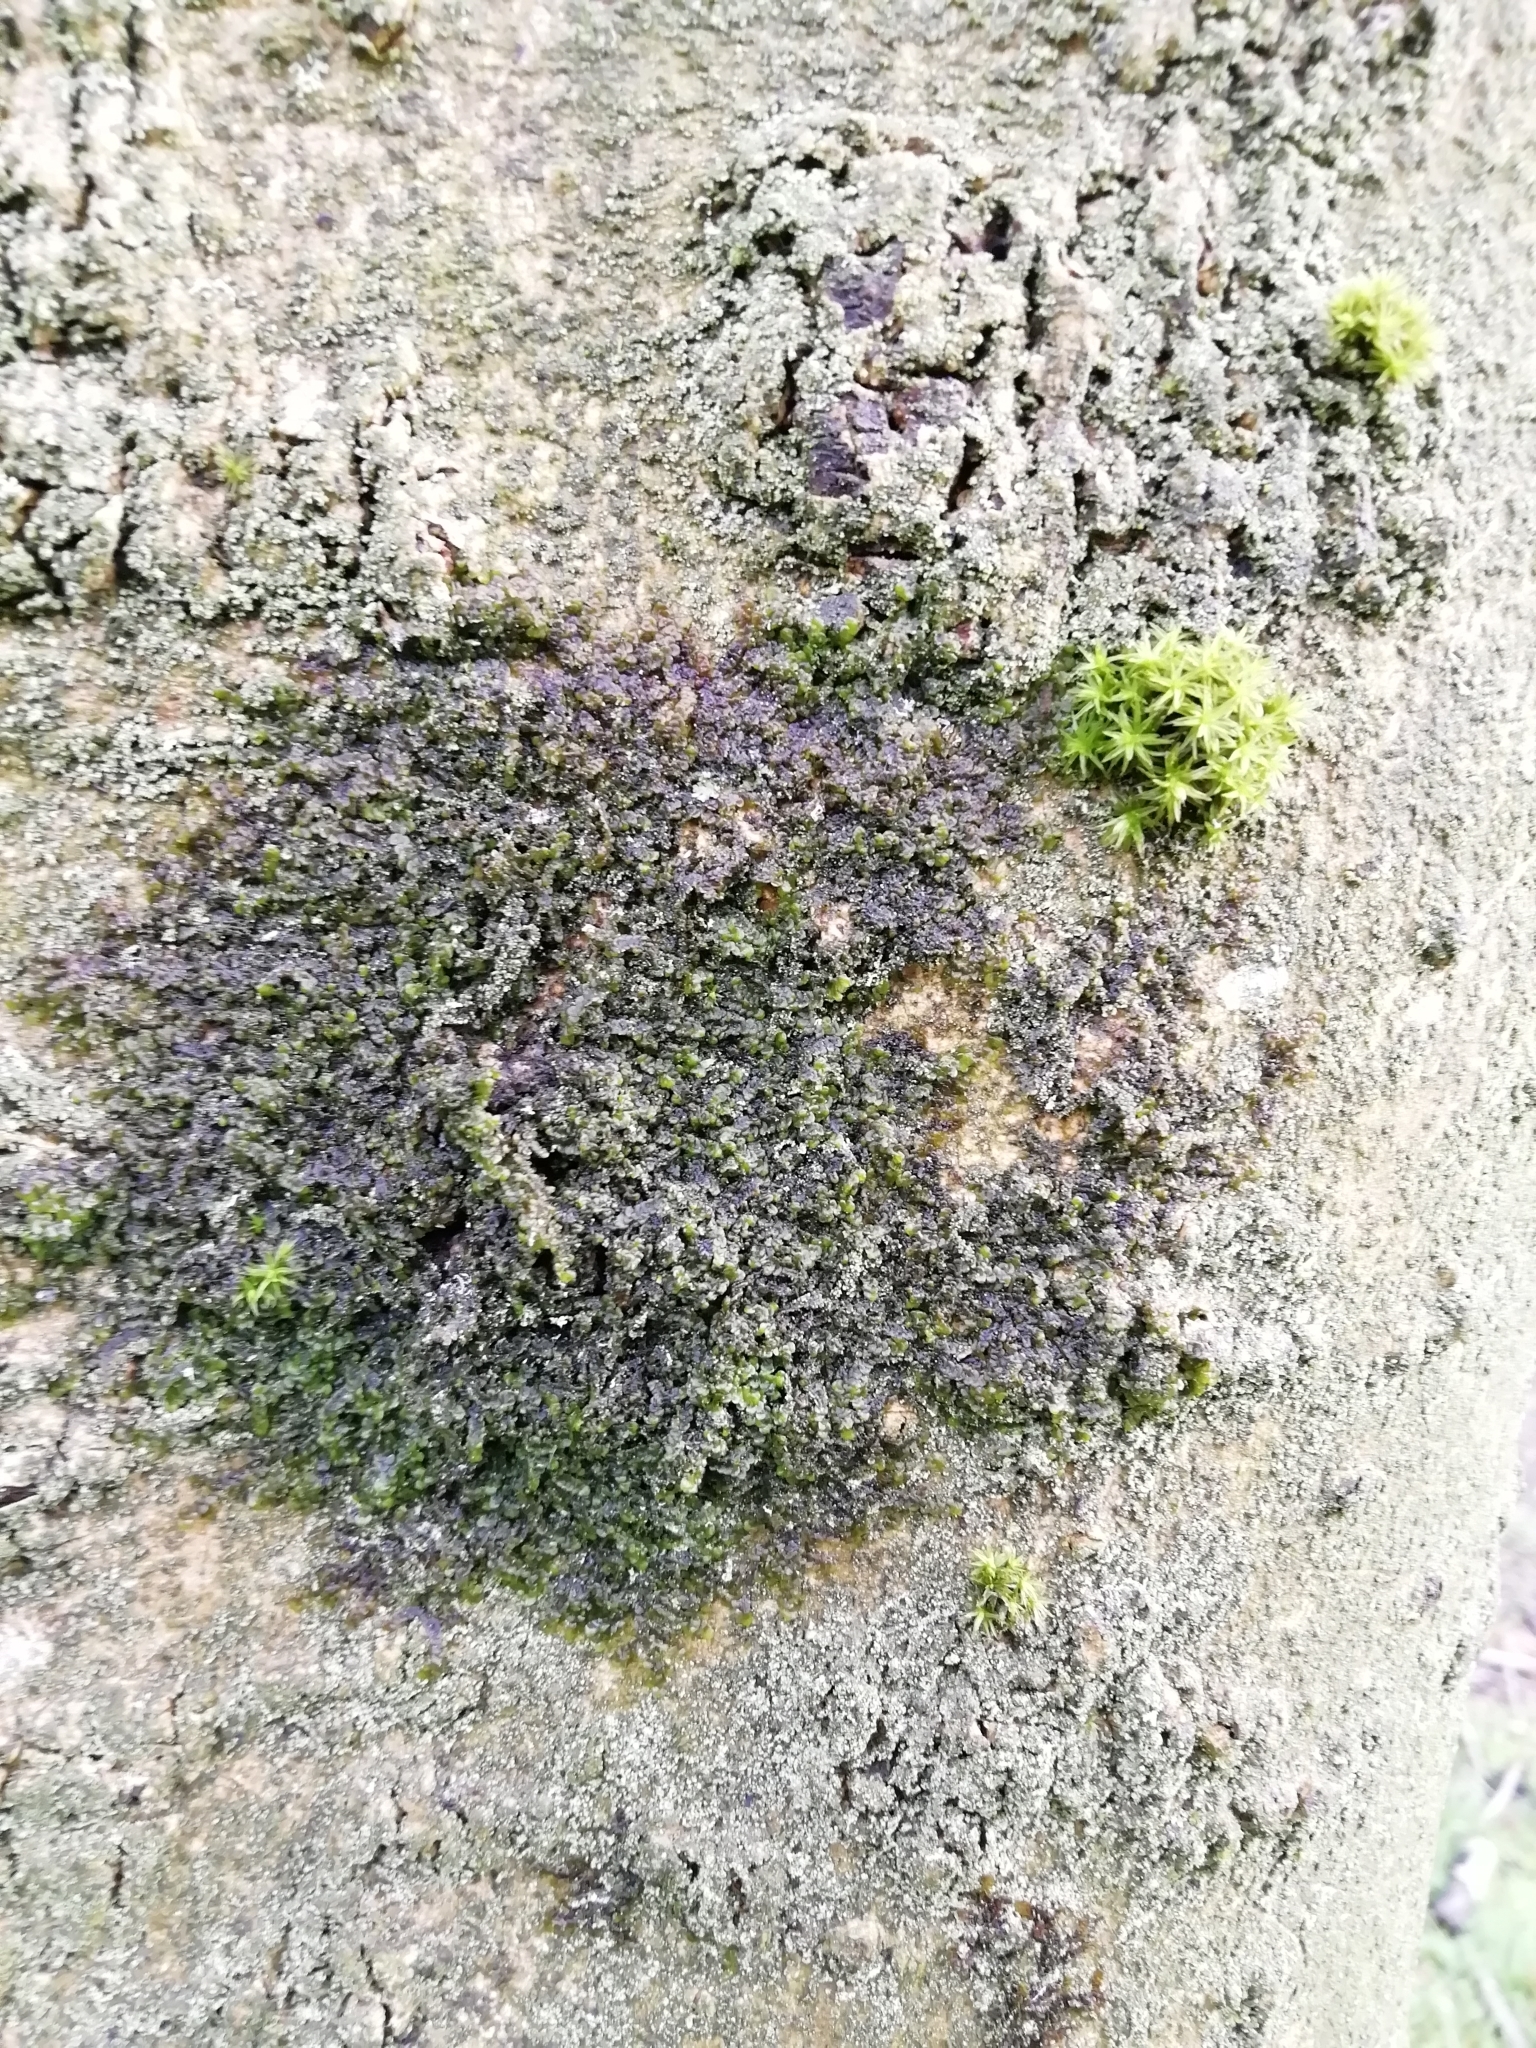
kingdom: Plantae
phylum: Marchantiophyta
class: Jungermanniopsida
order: Porellales
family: Frullaniaceae
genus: Frullania
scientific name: Frullania dilatata
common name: Dilated scalewort
